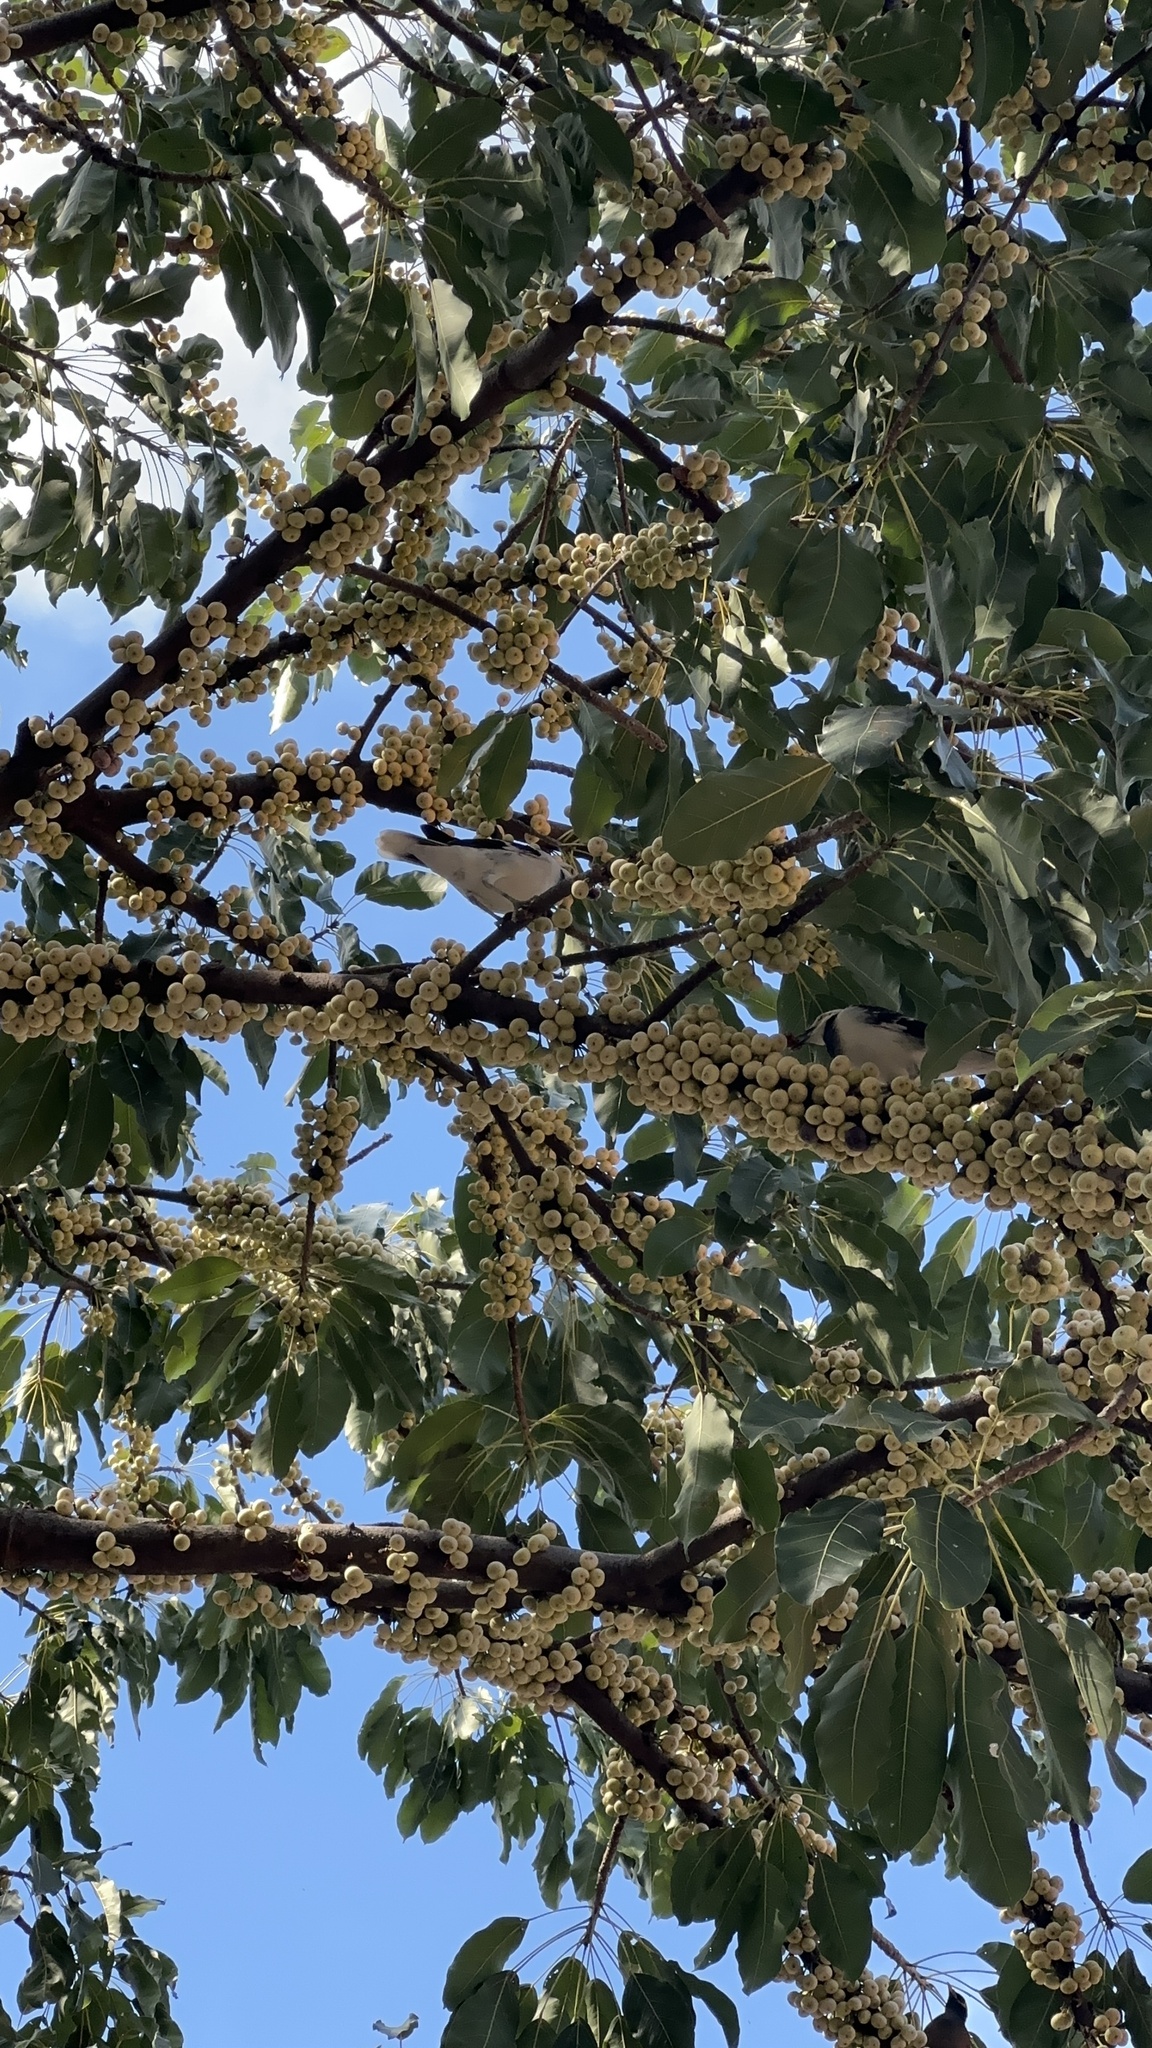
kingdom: Animalia
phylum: Chordata
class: Aves
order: Passeriformes
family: Sturnidae
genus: Gracupica
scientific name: Gracupica nigricollis
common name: Black-collared starling
